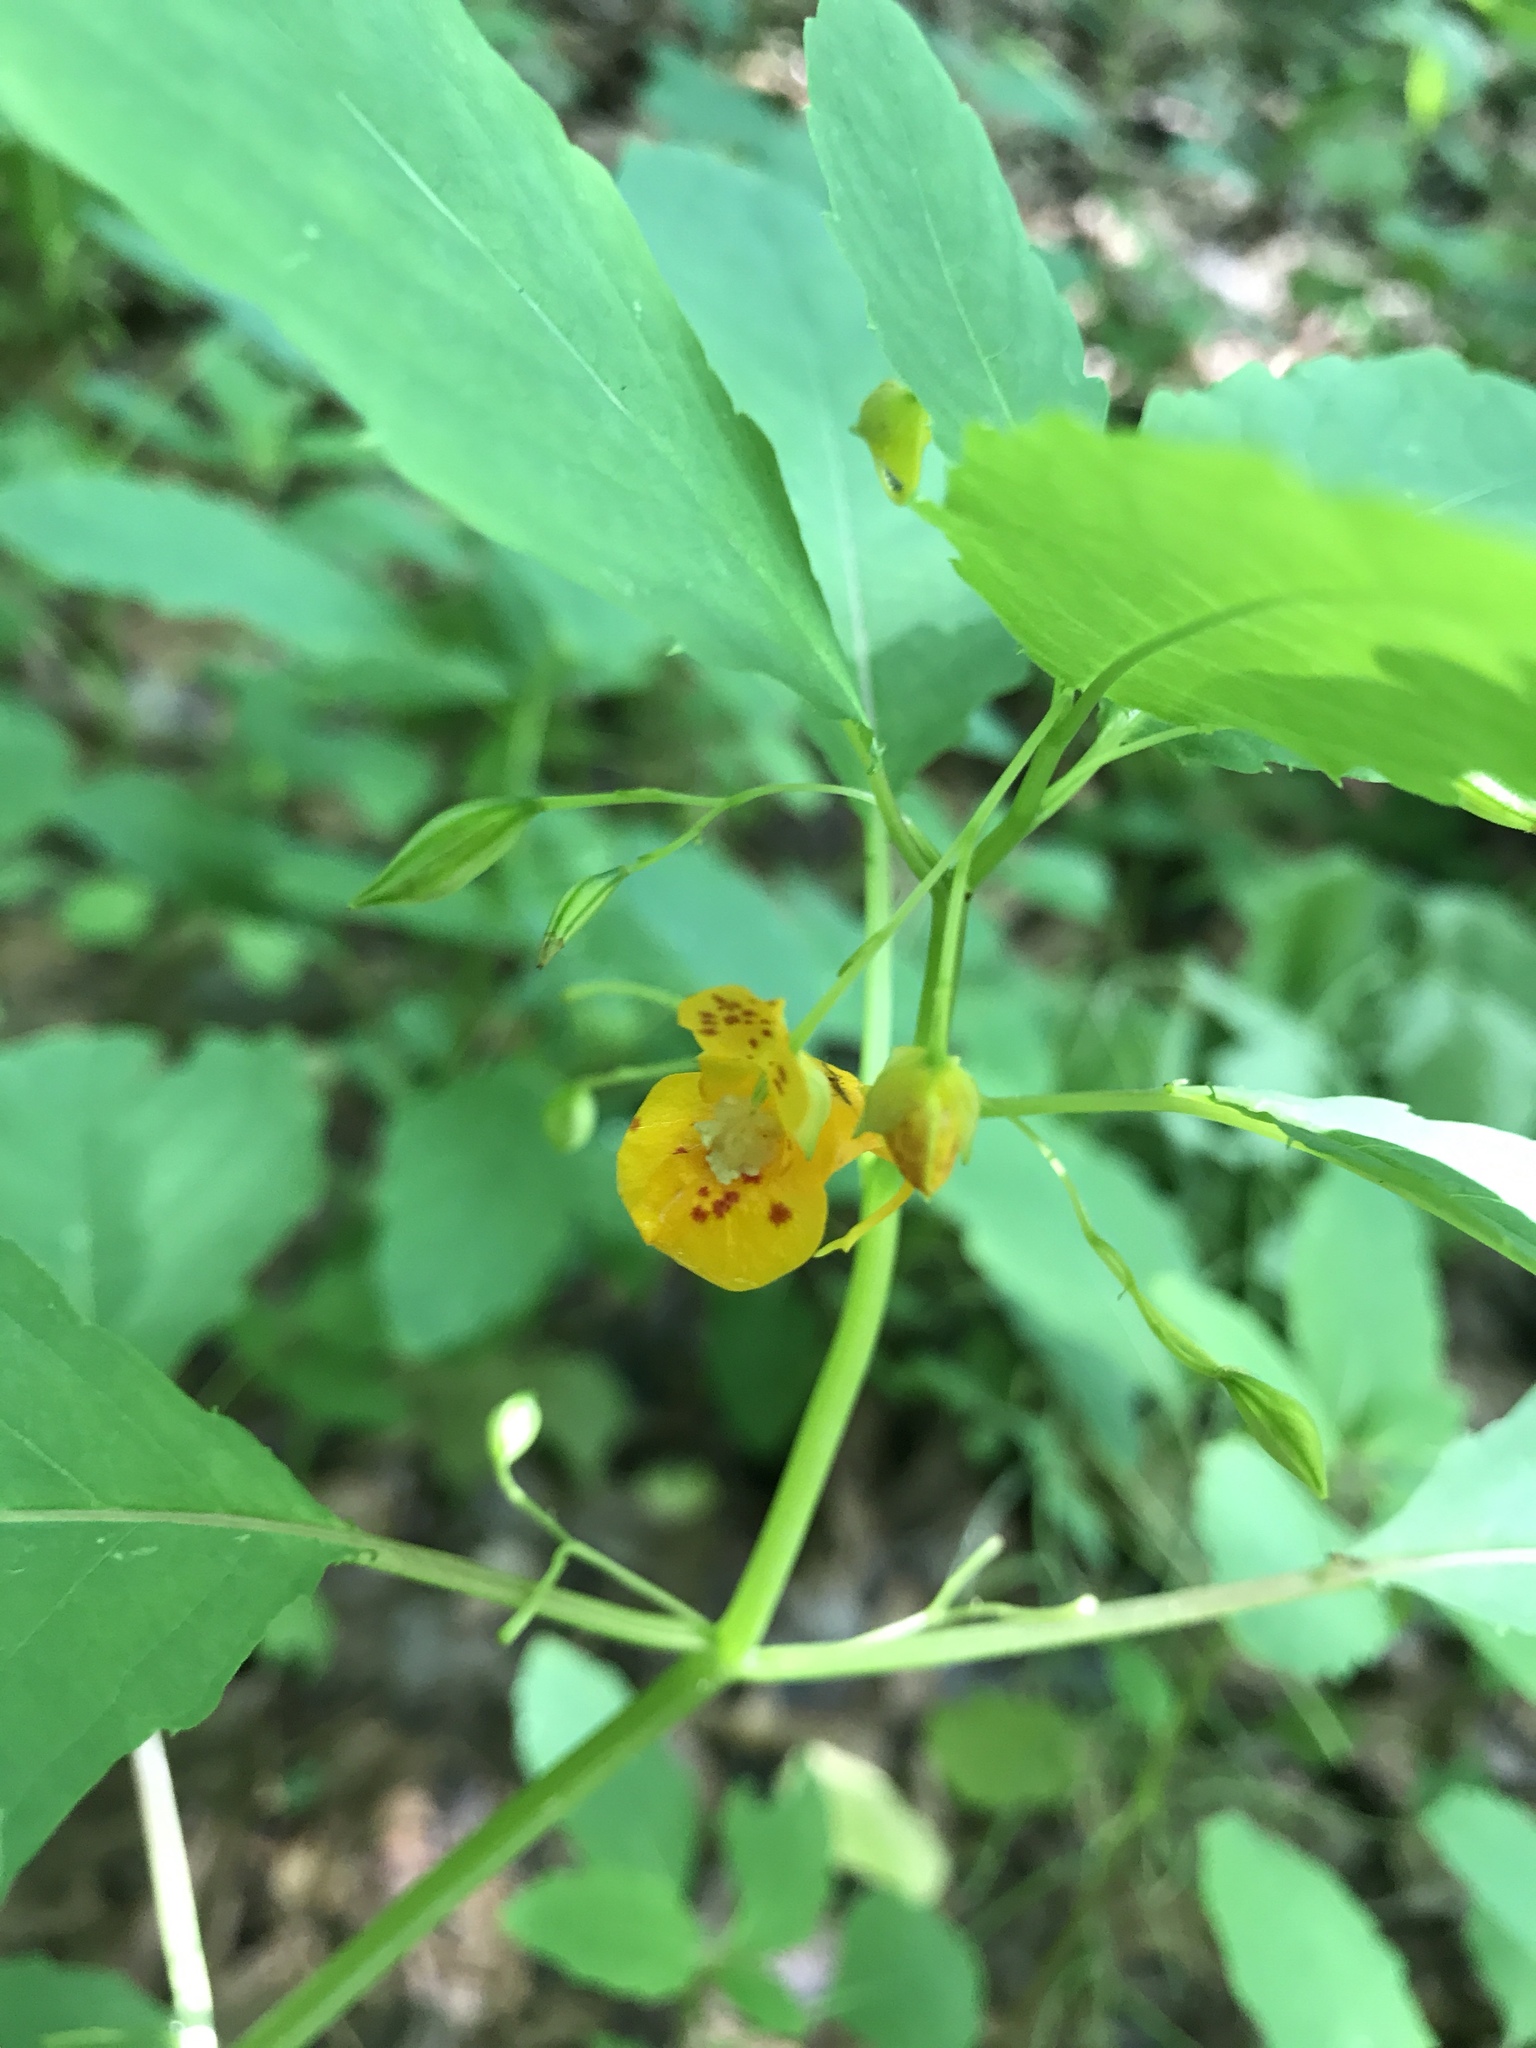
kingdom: Plantae
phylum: Tracheophyta
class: Magnoliopsida
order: Ericales
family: Balsaminaceae
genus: Impatiens
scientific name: Impatiens capensis
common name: Orange balsam
